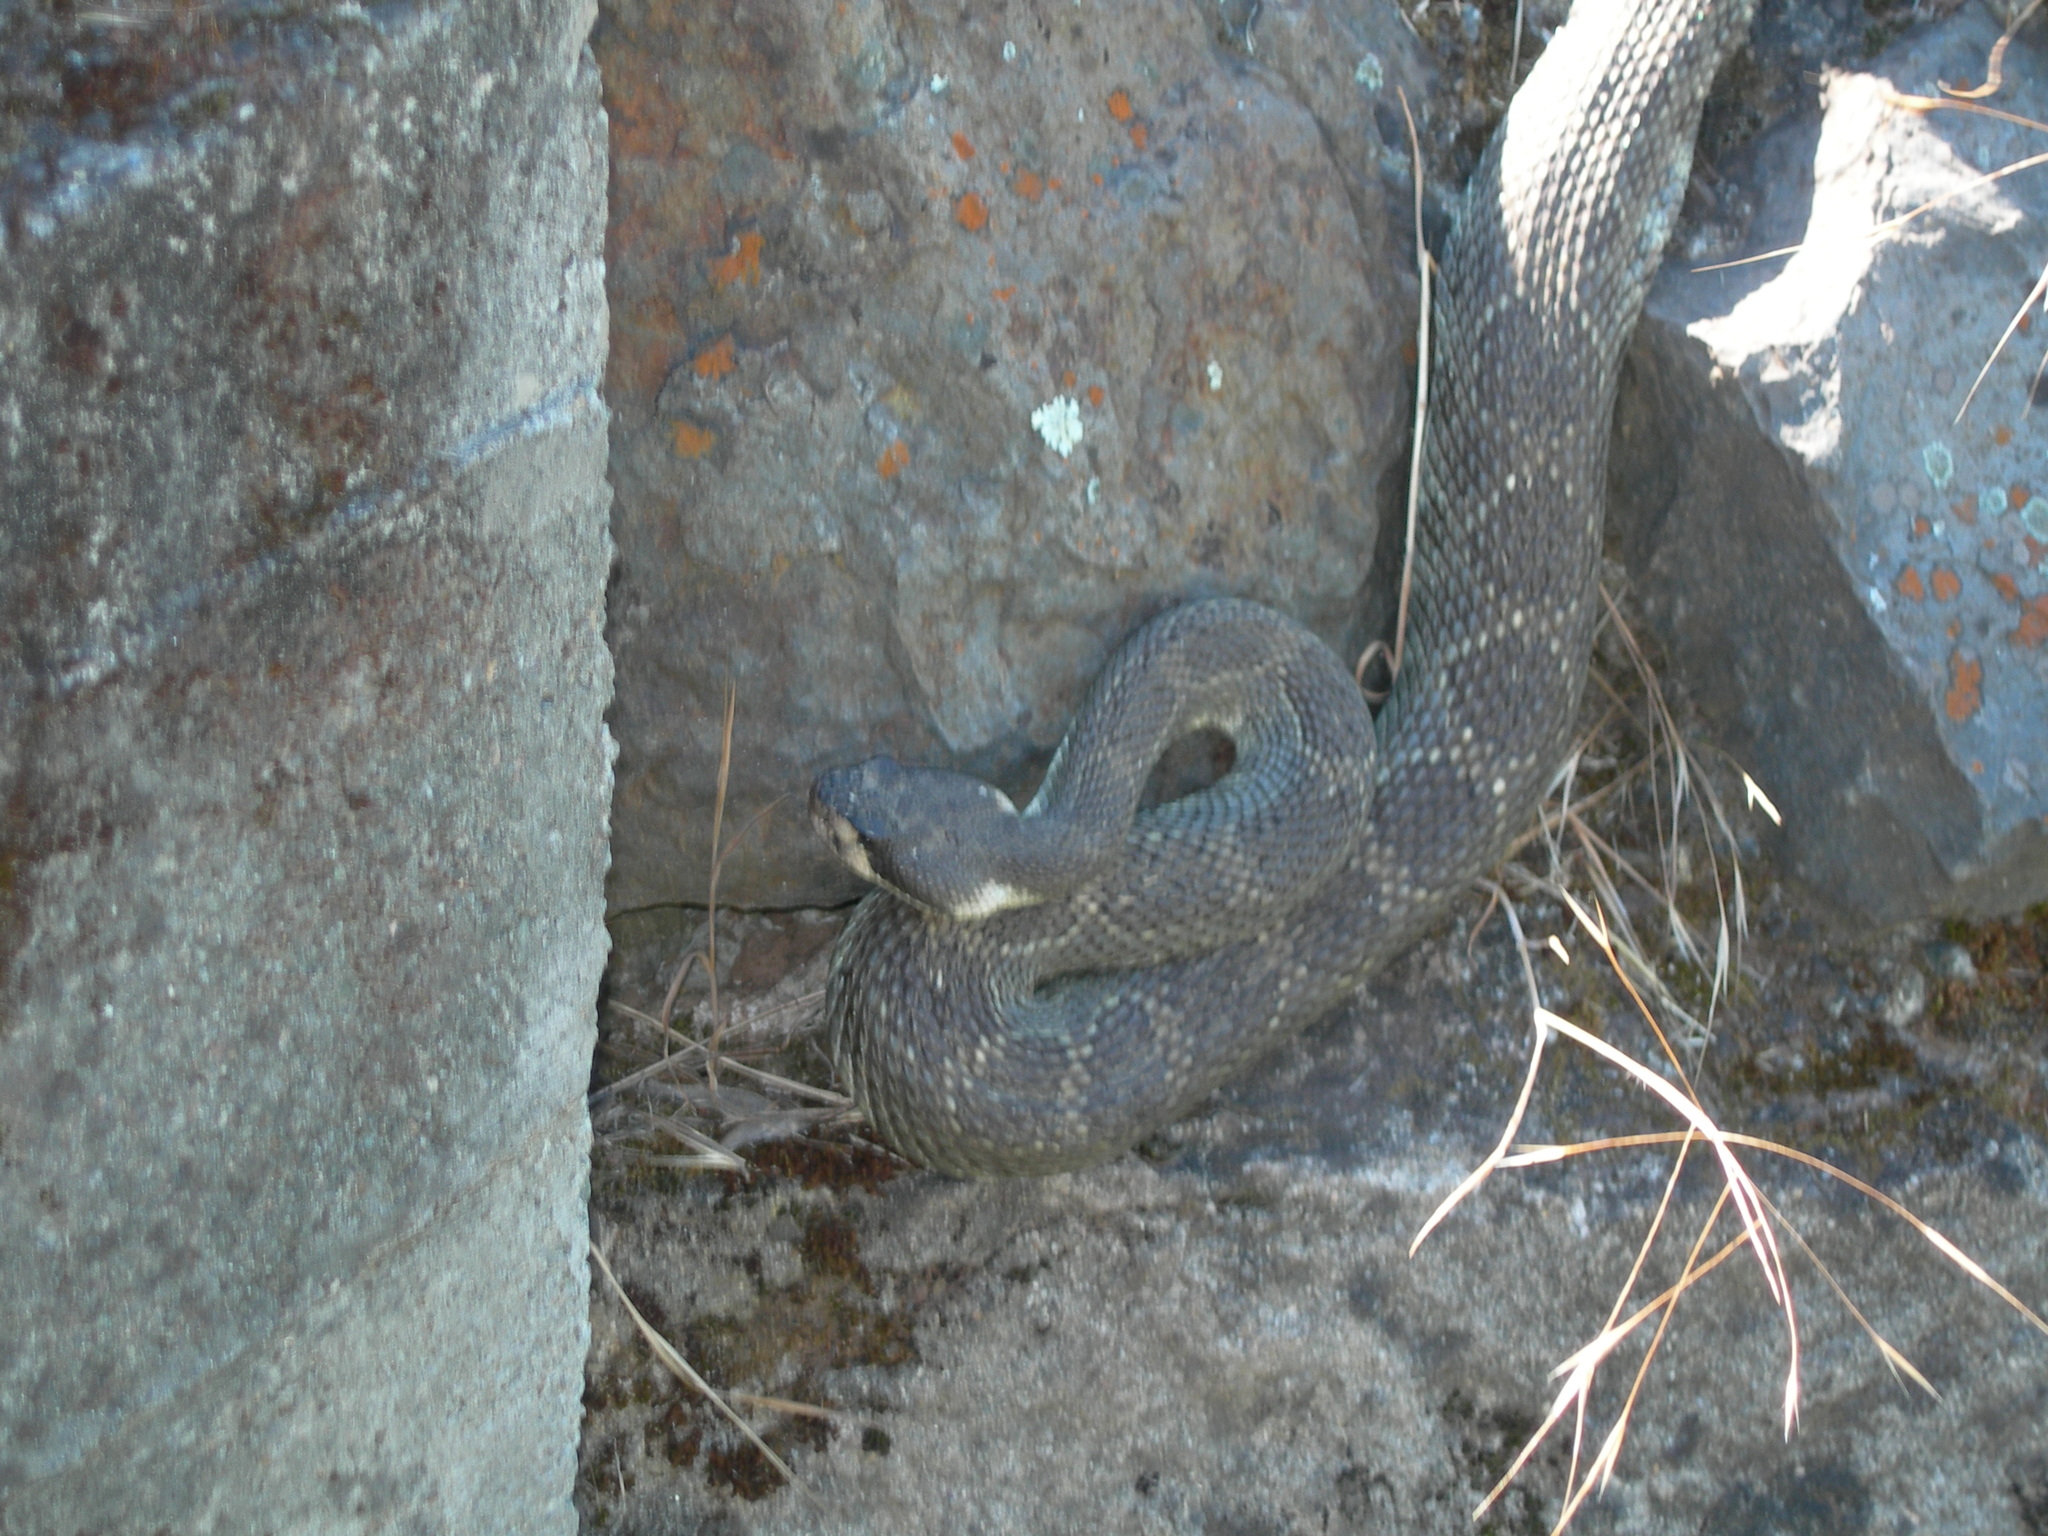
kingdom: Animalia
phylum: Chordata
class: Squamata
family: Viperidae
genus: Crotalus
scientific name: Crotalus oreganus
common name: Abyssus
